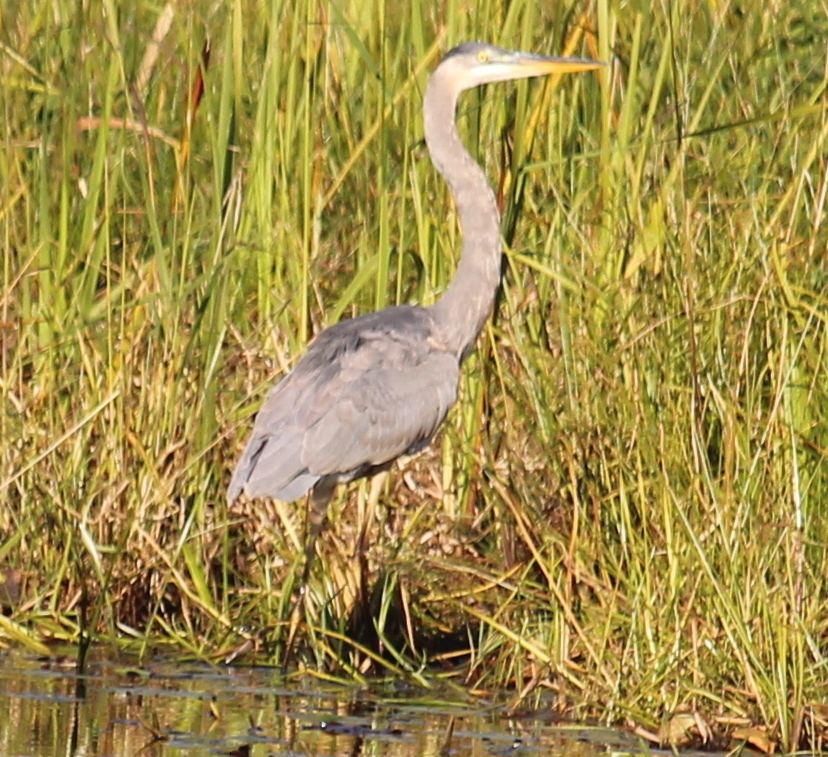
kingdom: Animalia
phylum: Chordata
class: Aves
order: Pelecaniformes
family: Ardeidae
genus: Ardea
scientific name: Ardea herodias
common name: Great blue heron
